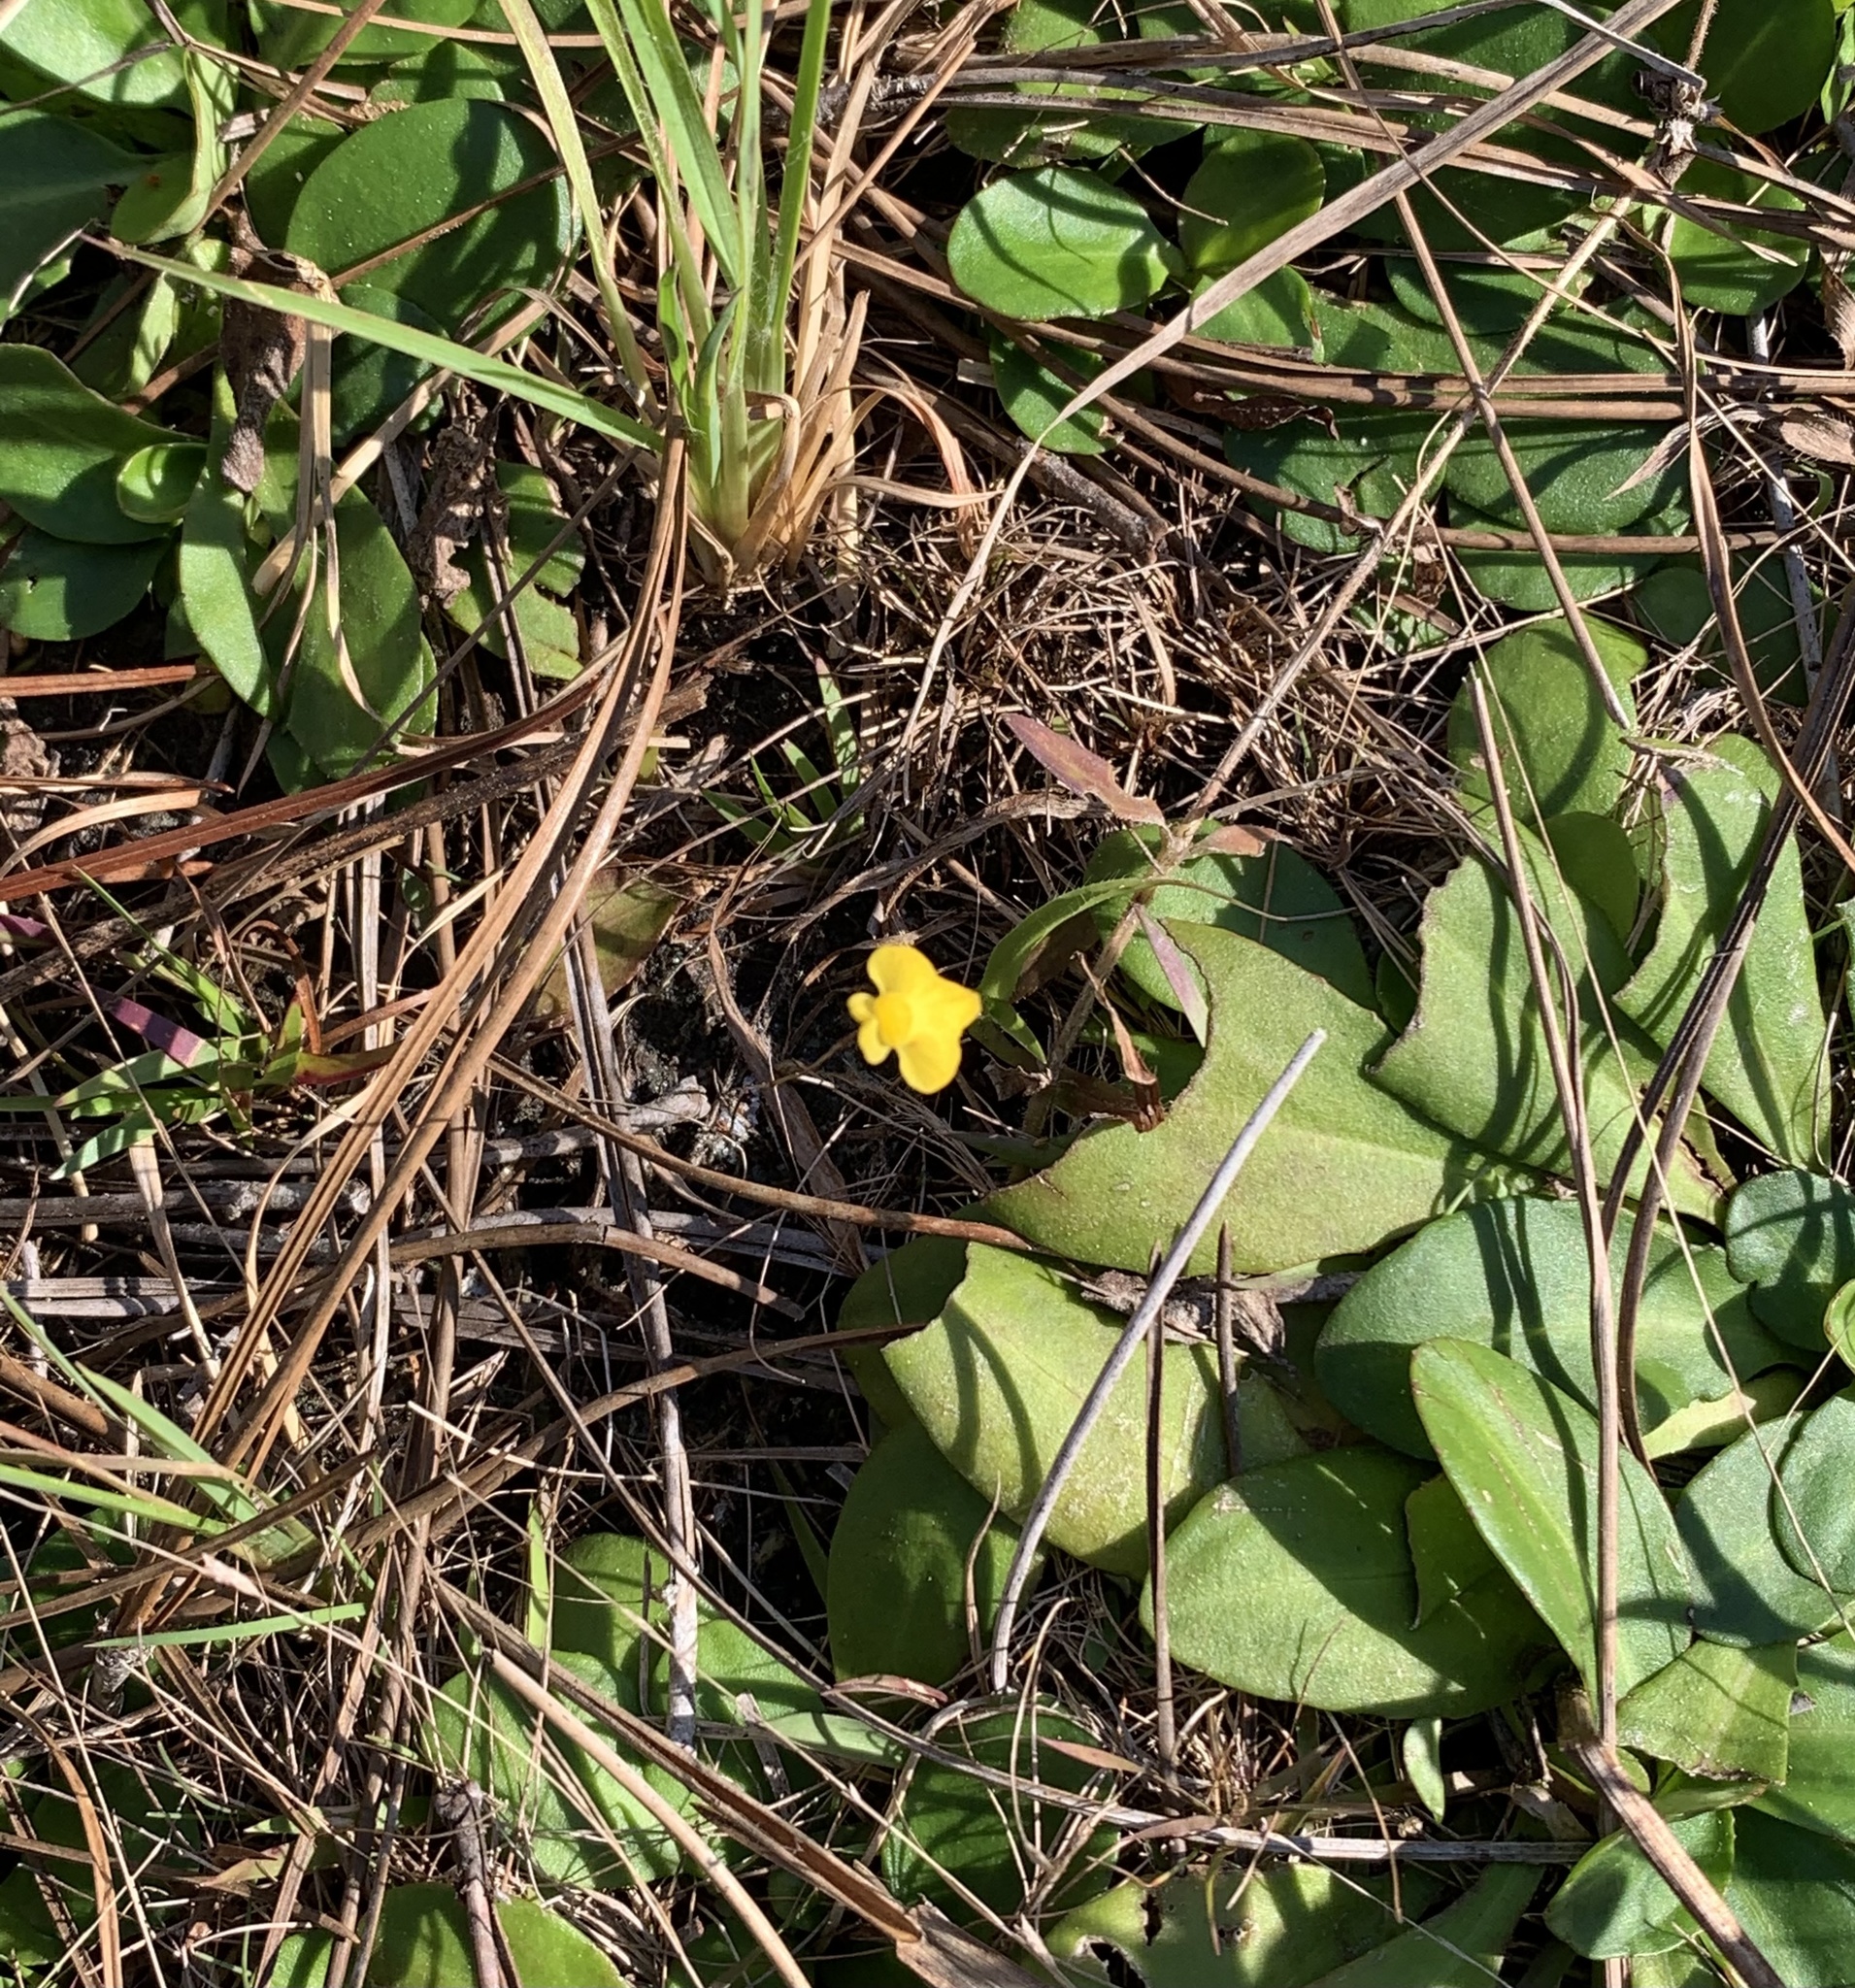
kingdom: Plantae
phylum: Tracheophyta
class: Magnoliopsida
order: Lamiales
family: Lentibulariaceae
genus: Utricularia
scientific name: Utricularia subulata
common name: Tiny bladderwort
